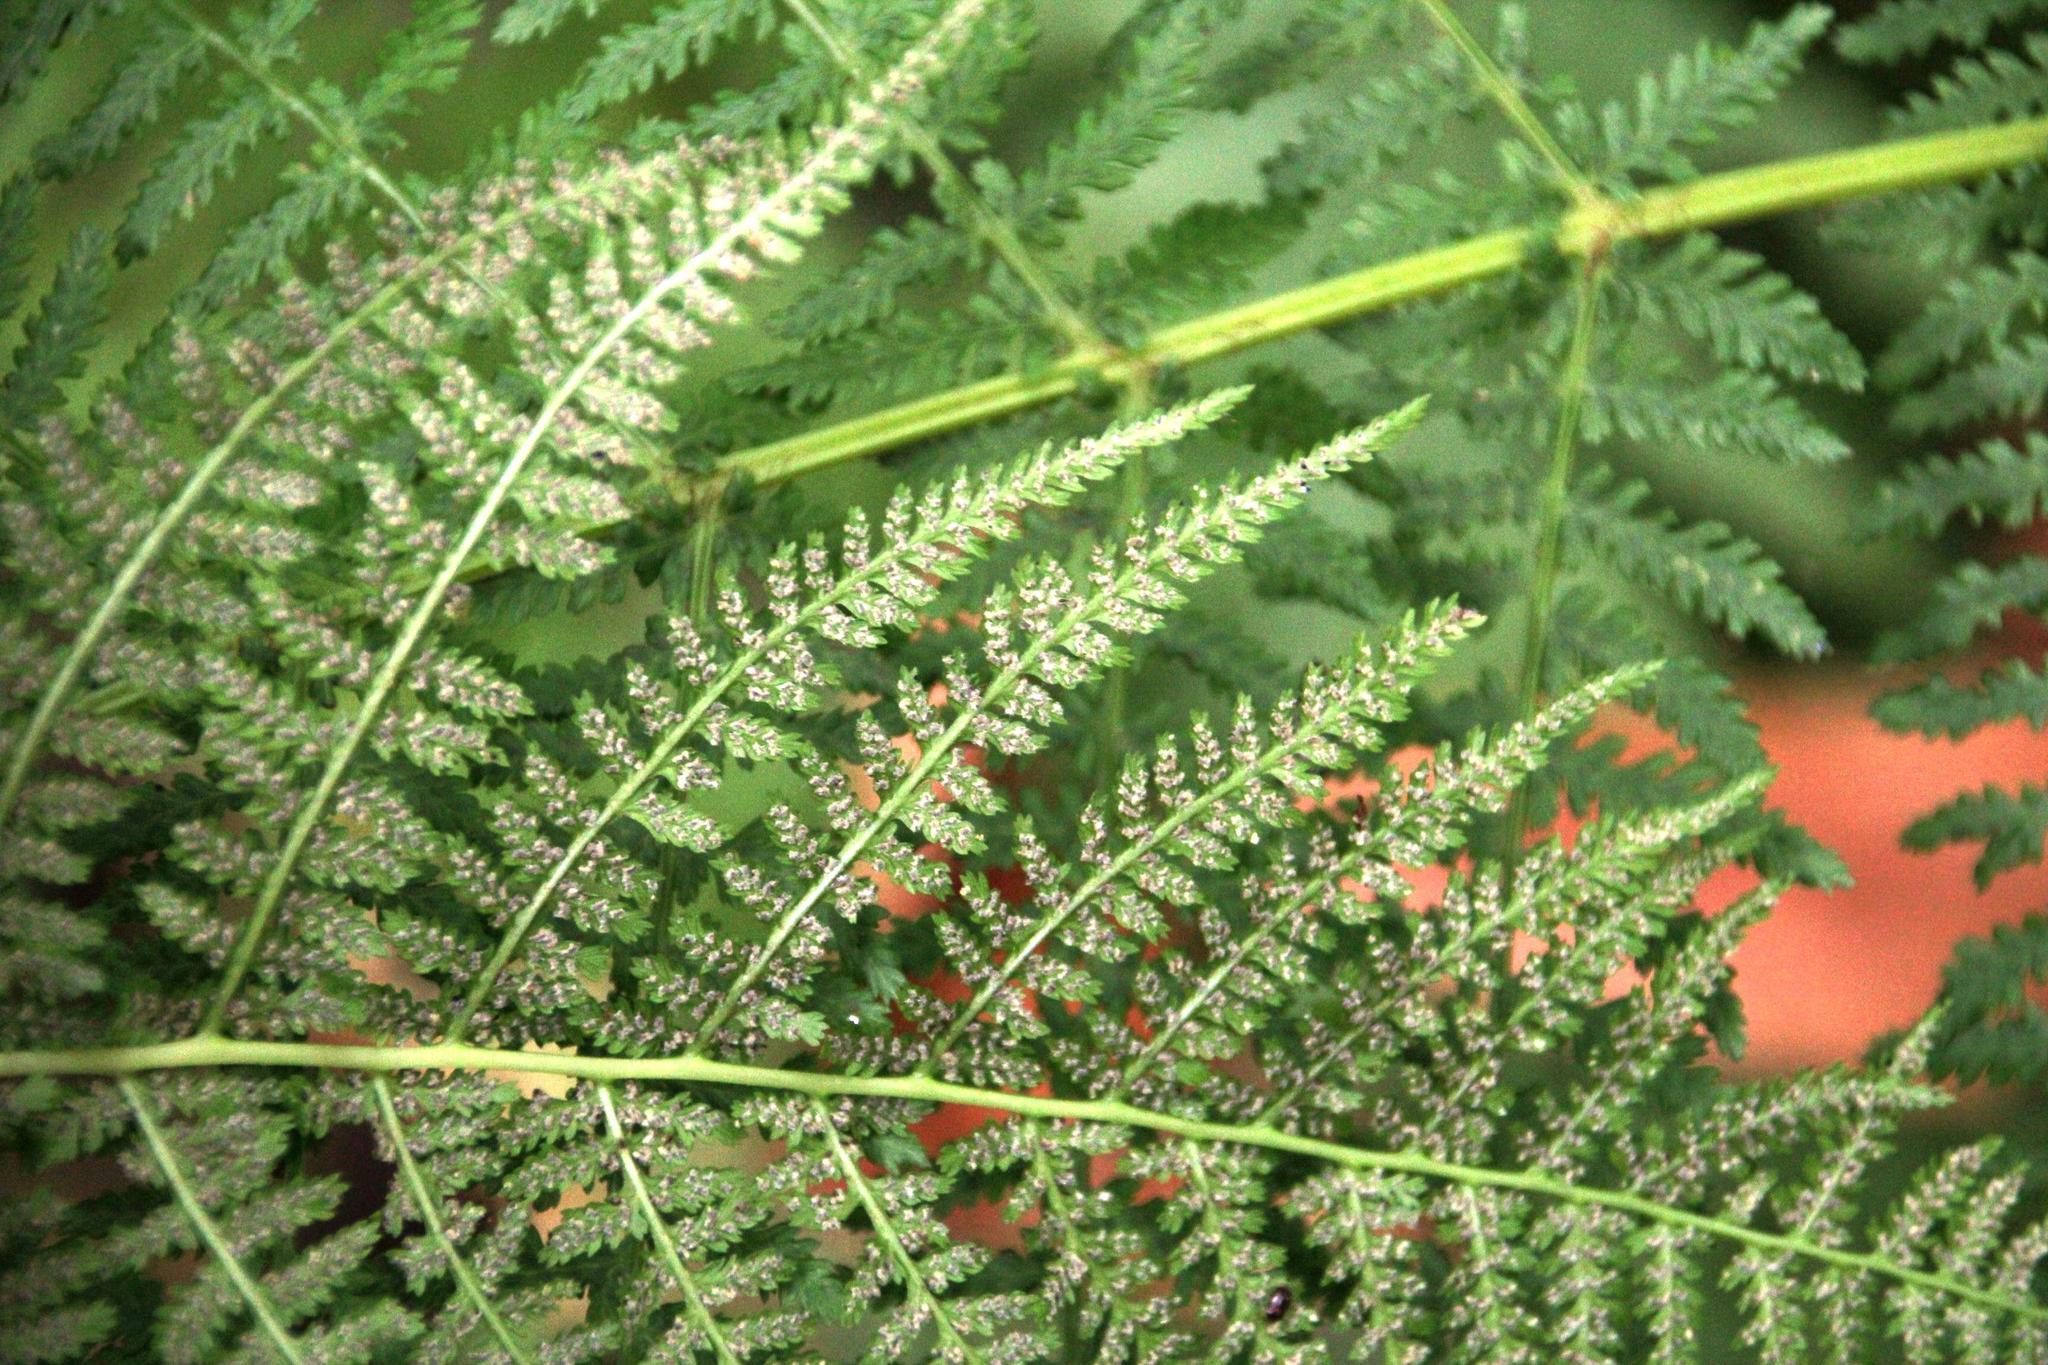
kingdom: Plantae
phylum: Tracheophyta
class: Polypodiopsida
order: Polypodiales
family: Athyriaceae
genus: Athyrium
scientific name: Athyrium filix-femina
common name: Lady fern
